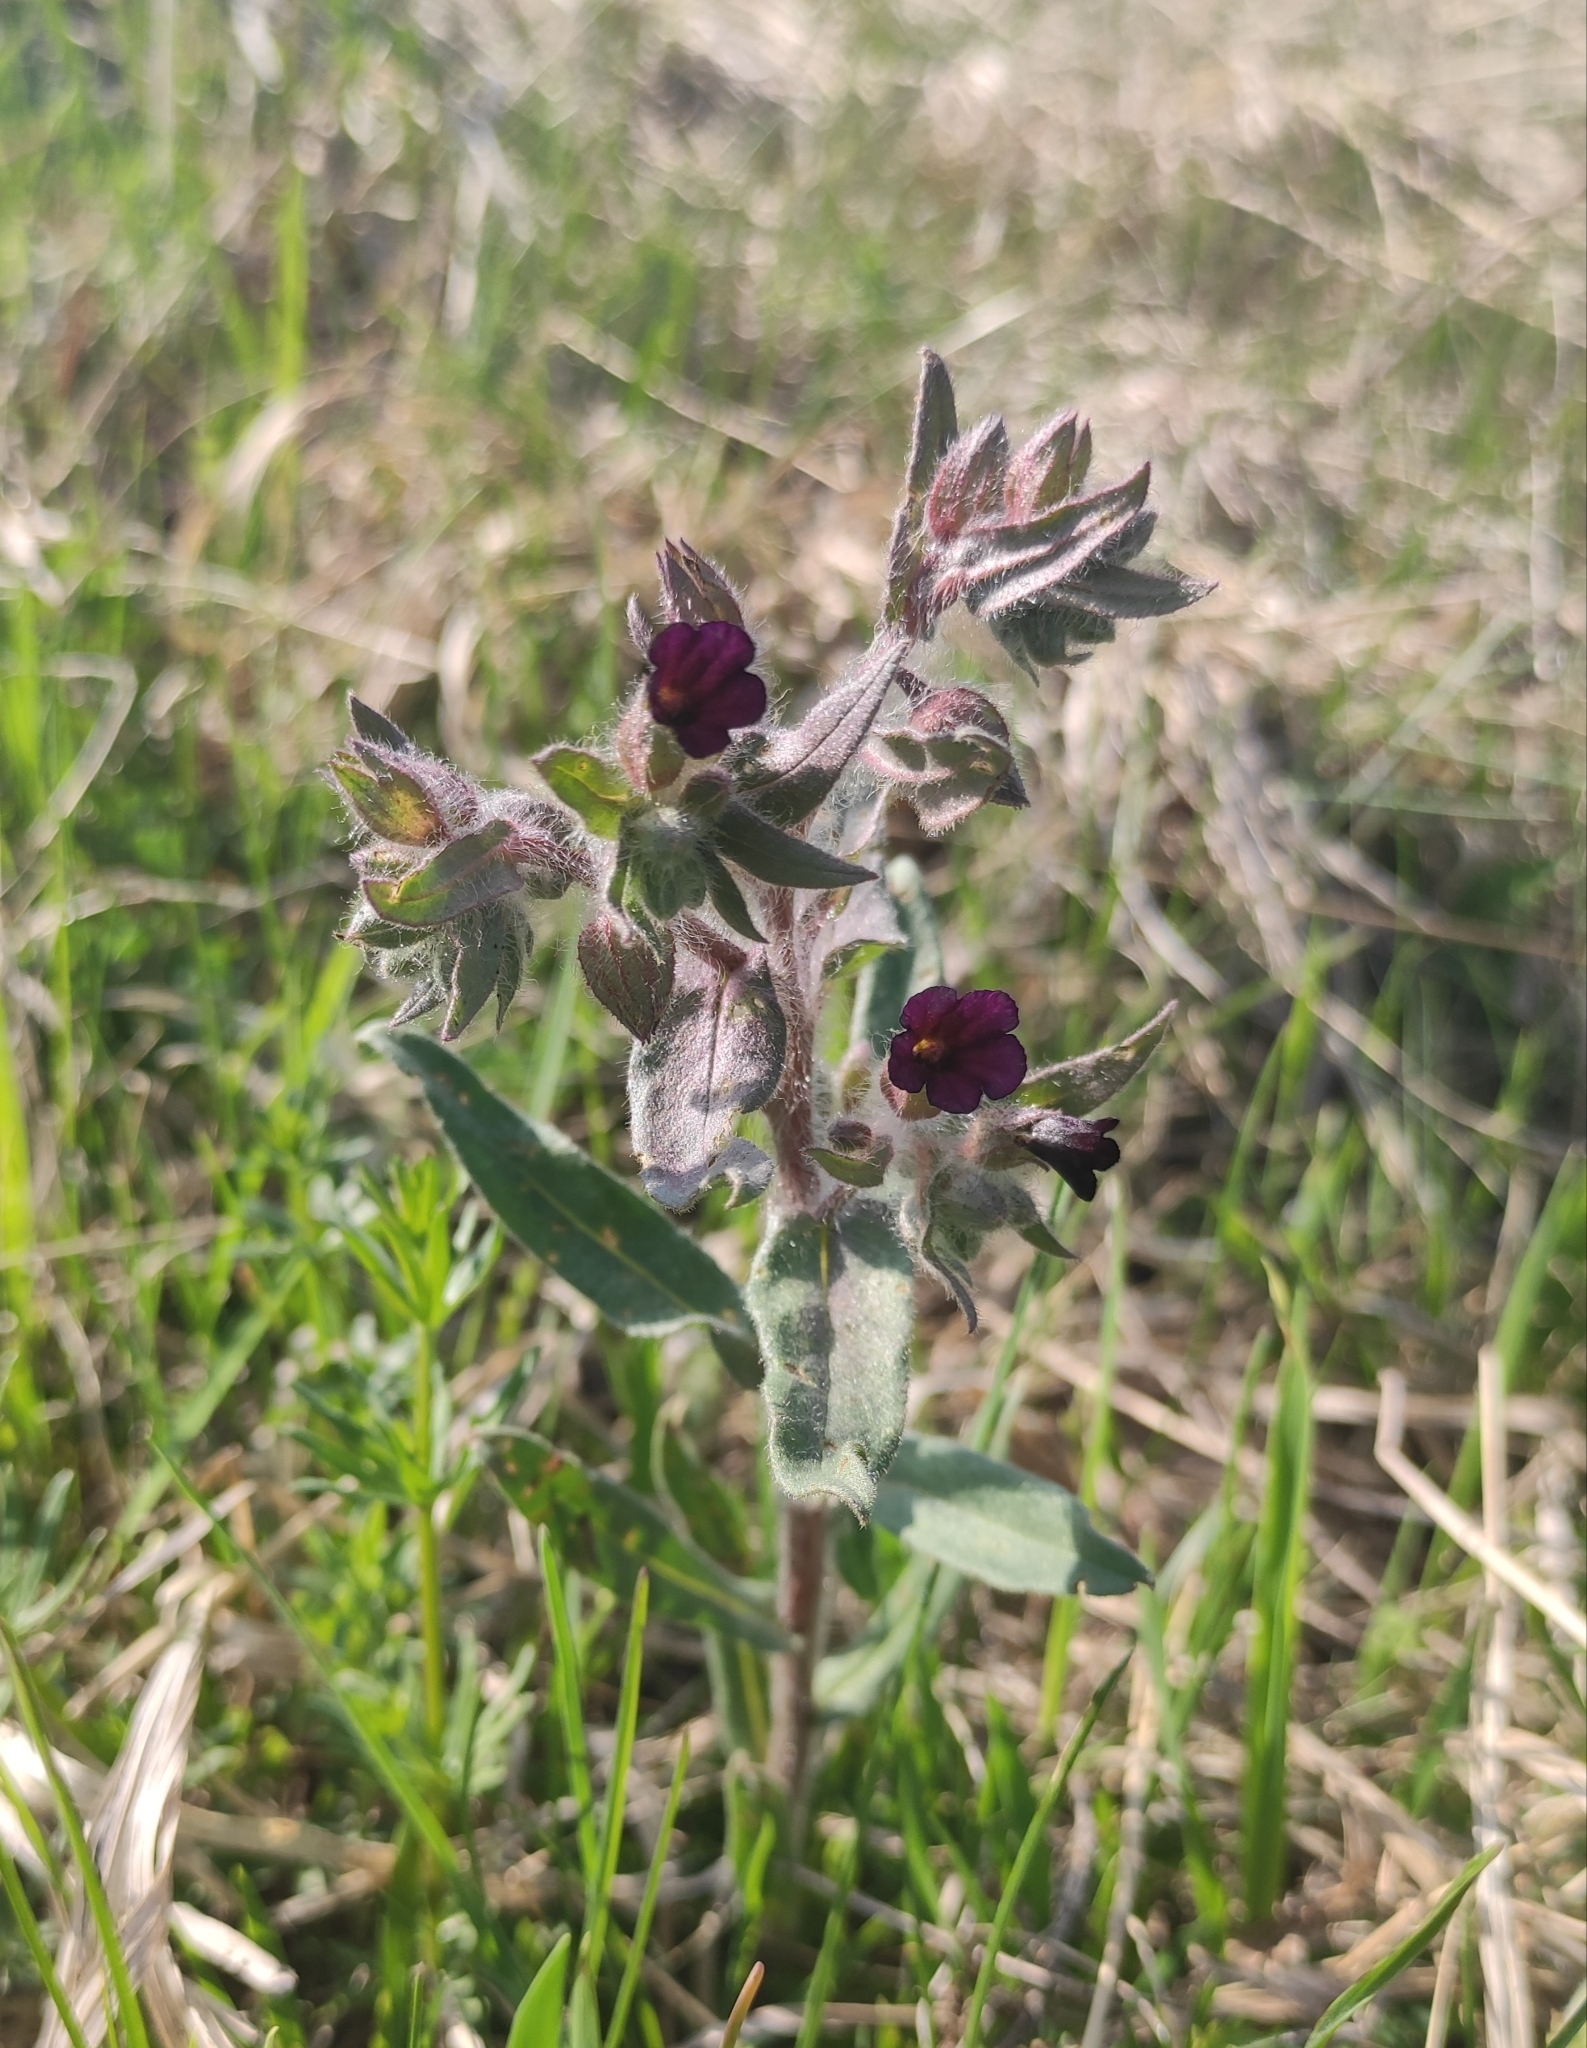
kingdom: Plantae
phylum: Tracheophyta
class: Magnoliopsida
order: Boraginales
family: Boraginaceae
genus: Nonea
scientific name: Nonea pulla
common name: Brown nonea
